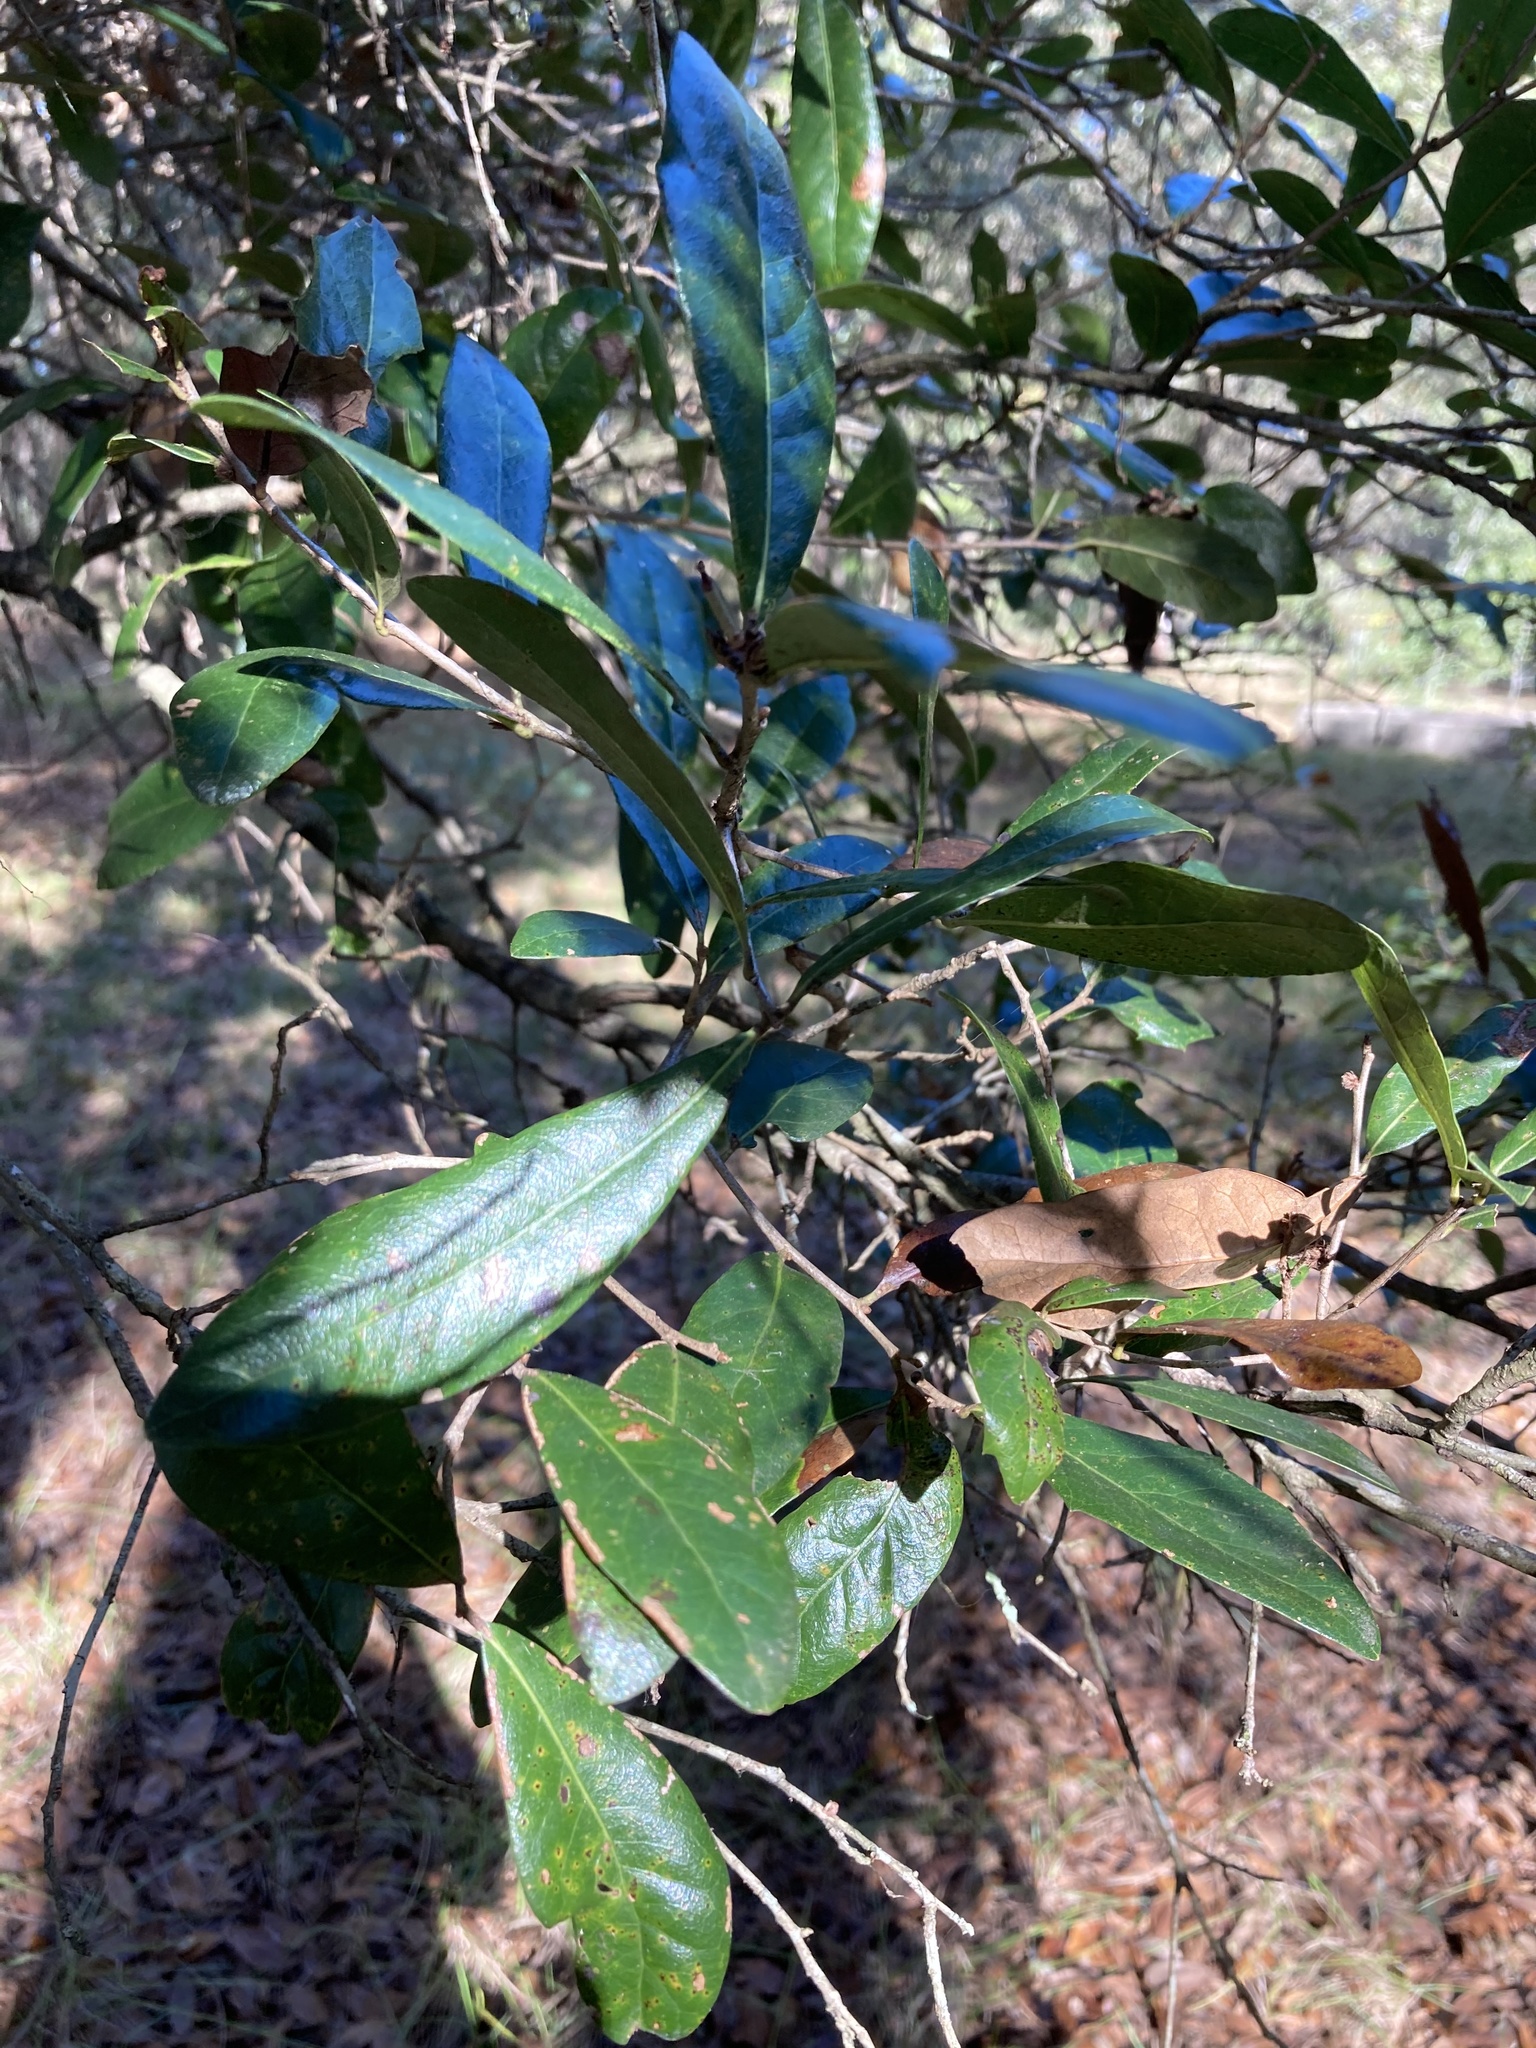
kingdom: Plantae
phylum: Tracheophyta
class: Magnoliopsida
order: Fagales
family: Fagaceae
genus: Quercus
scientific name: Quercus virginiana
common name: Southern live oak
